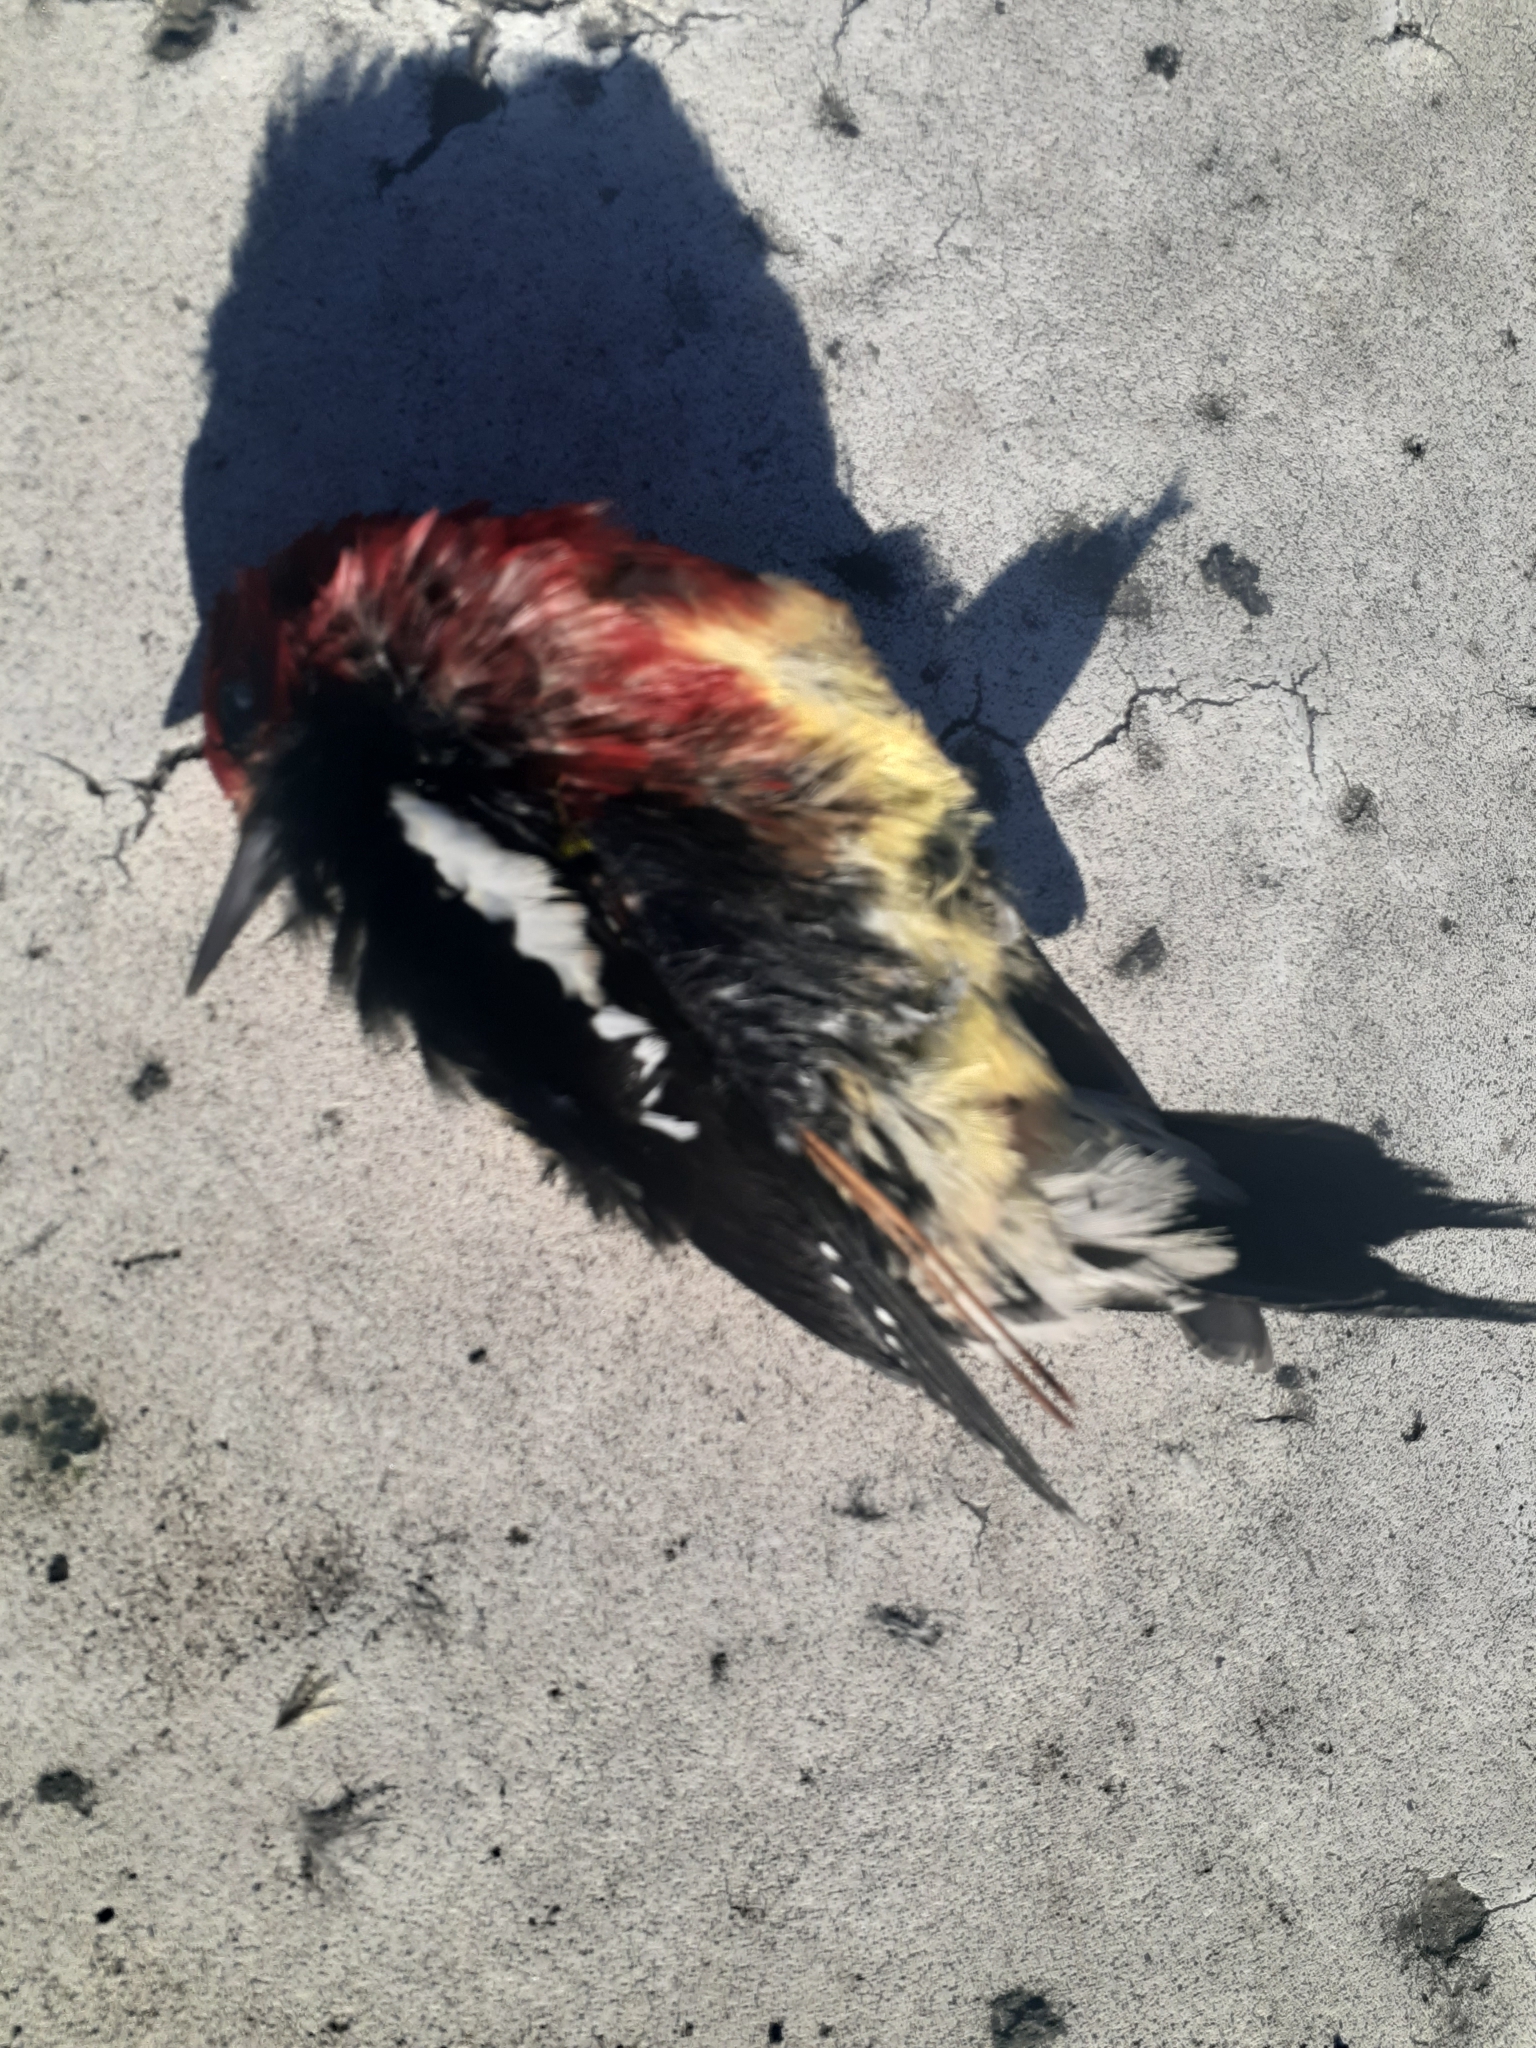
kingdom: Animalia
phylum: Chordata
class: Aves
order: Piciformes
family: Picidae
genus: Sphyrapicus
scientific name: Sphyrapicus ruber
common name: Red-breasted sapsucker
